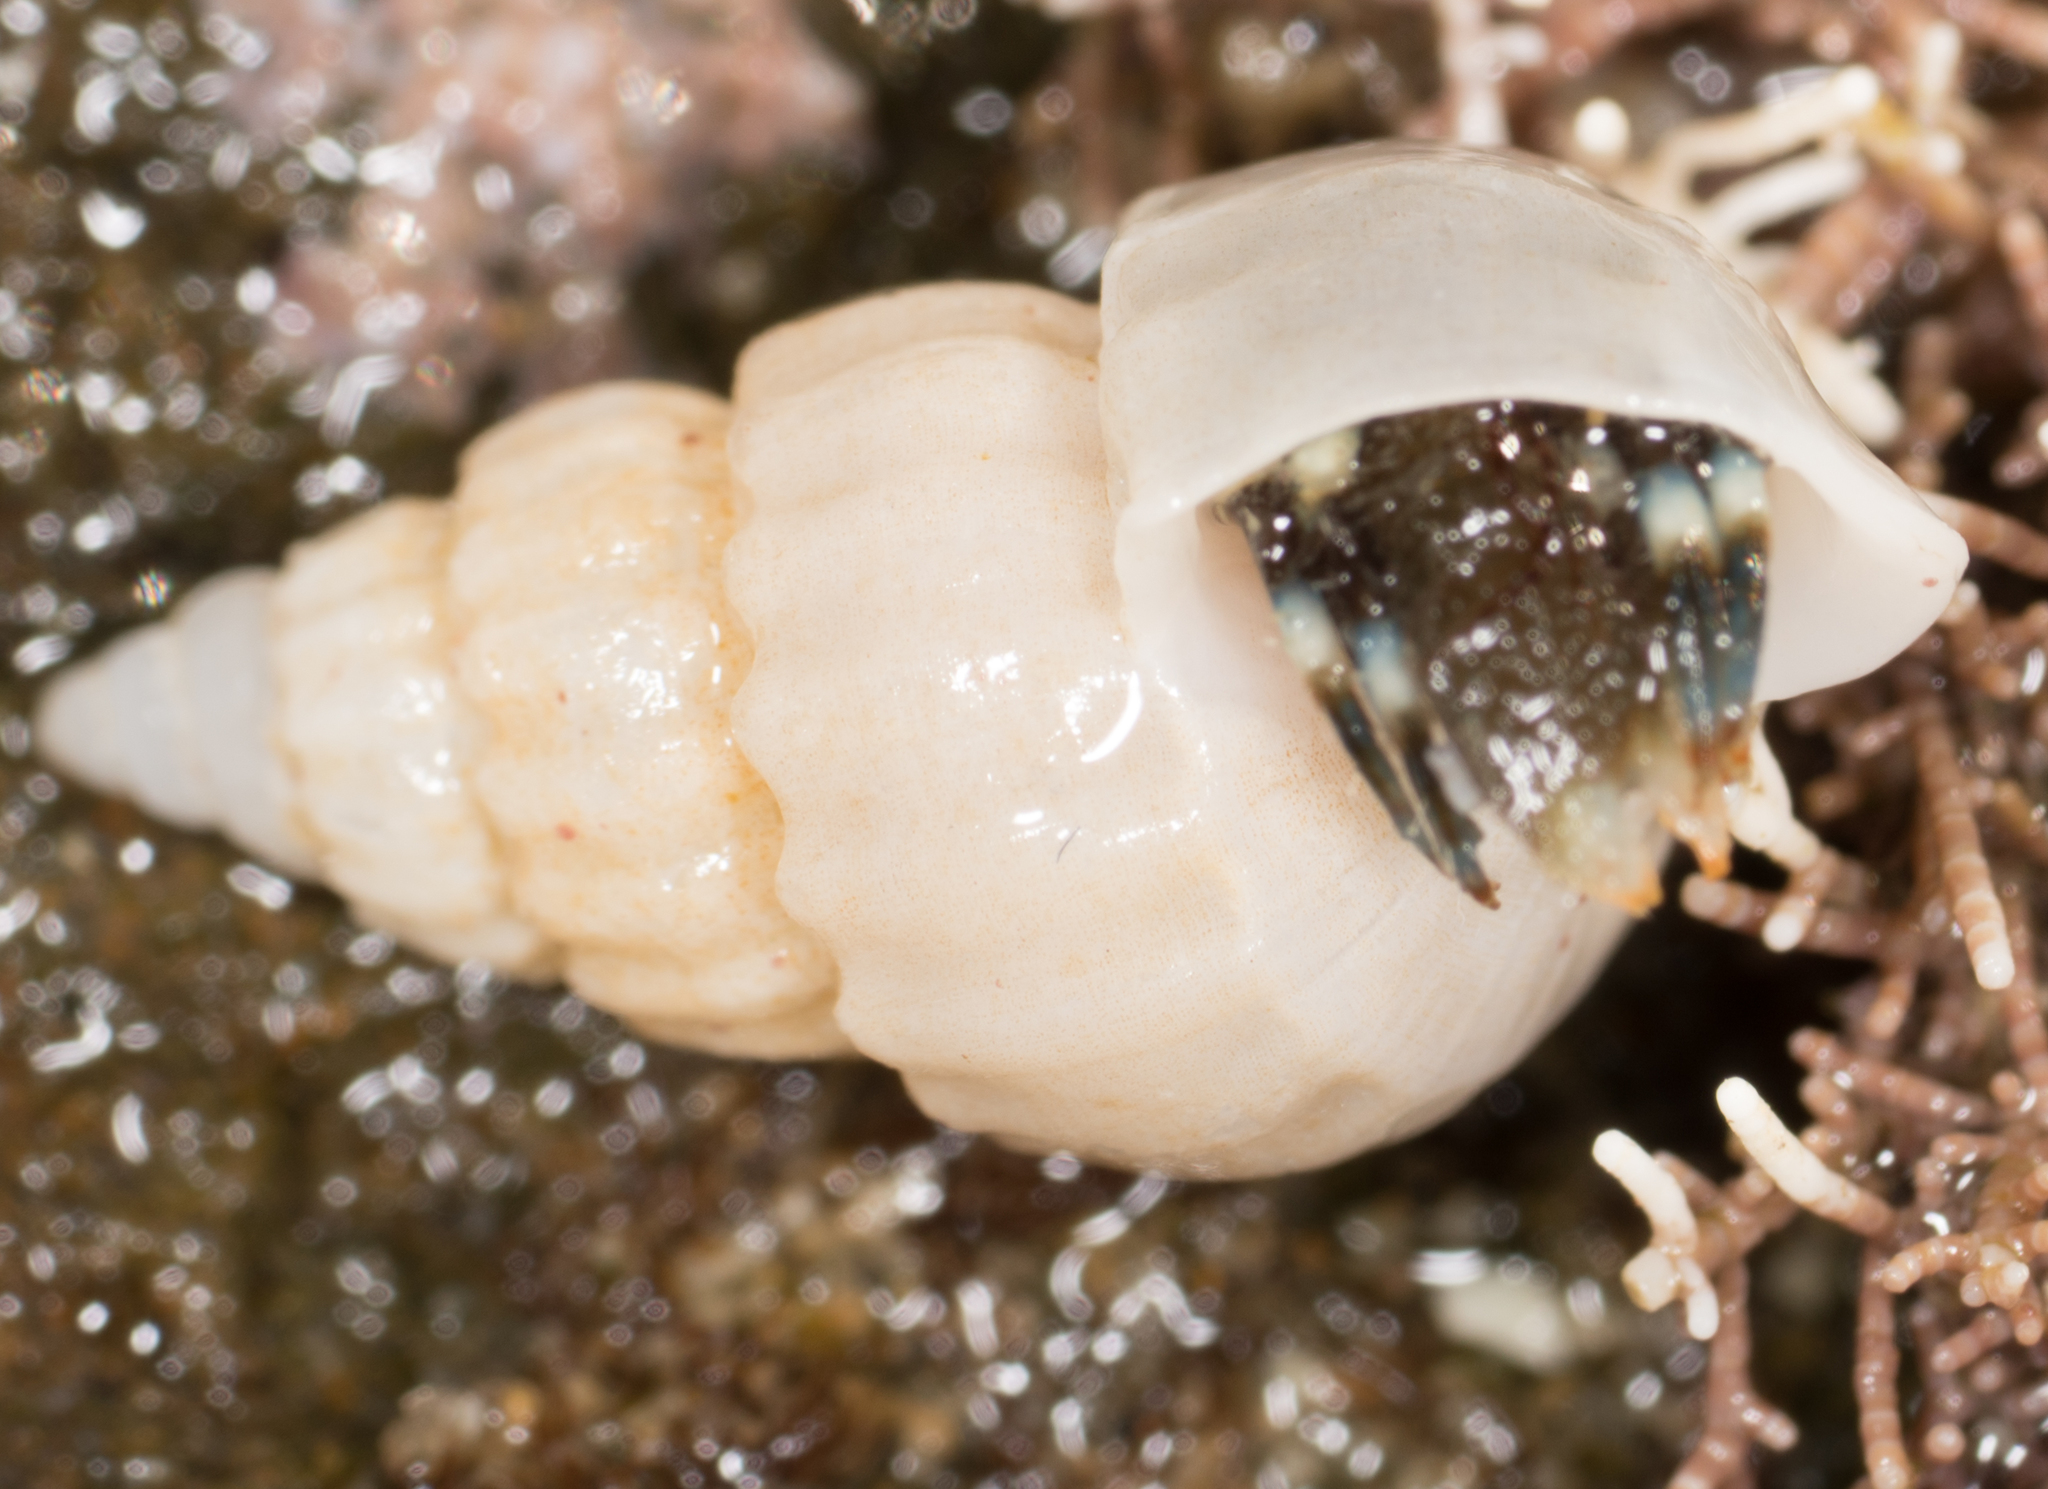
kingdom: Animalia
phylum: Mollusca
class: Gastropoda
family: Epitoniidae
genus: Opalia
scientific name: Opalia funiculata
